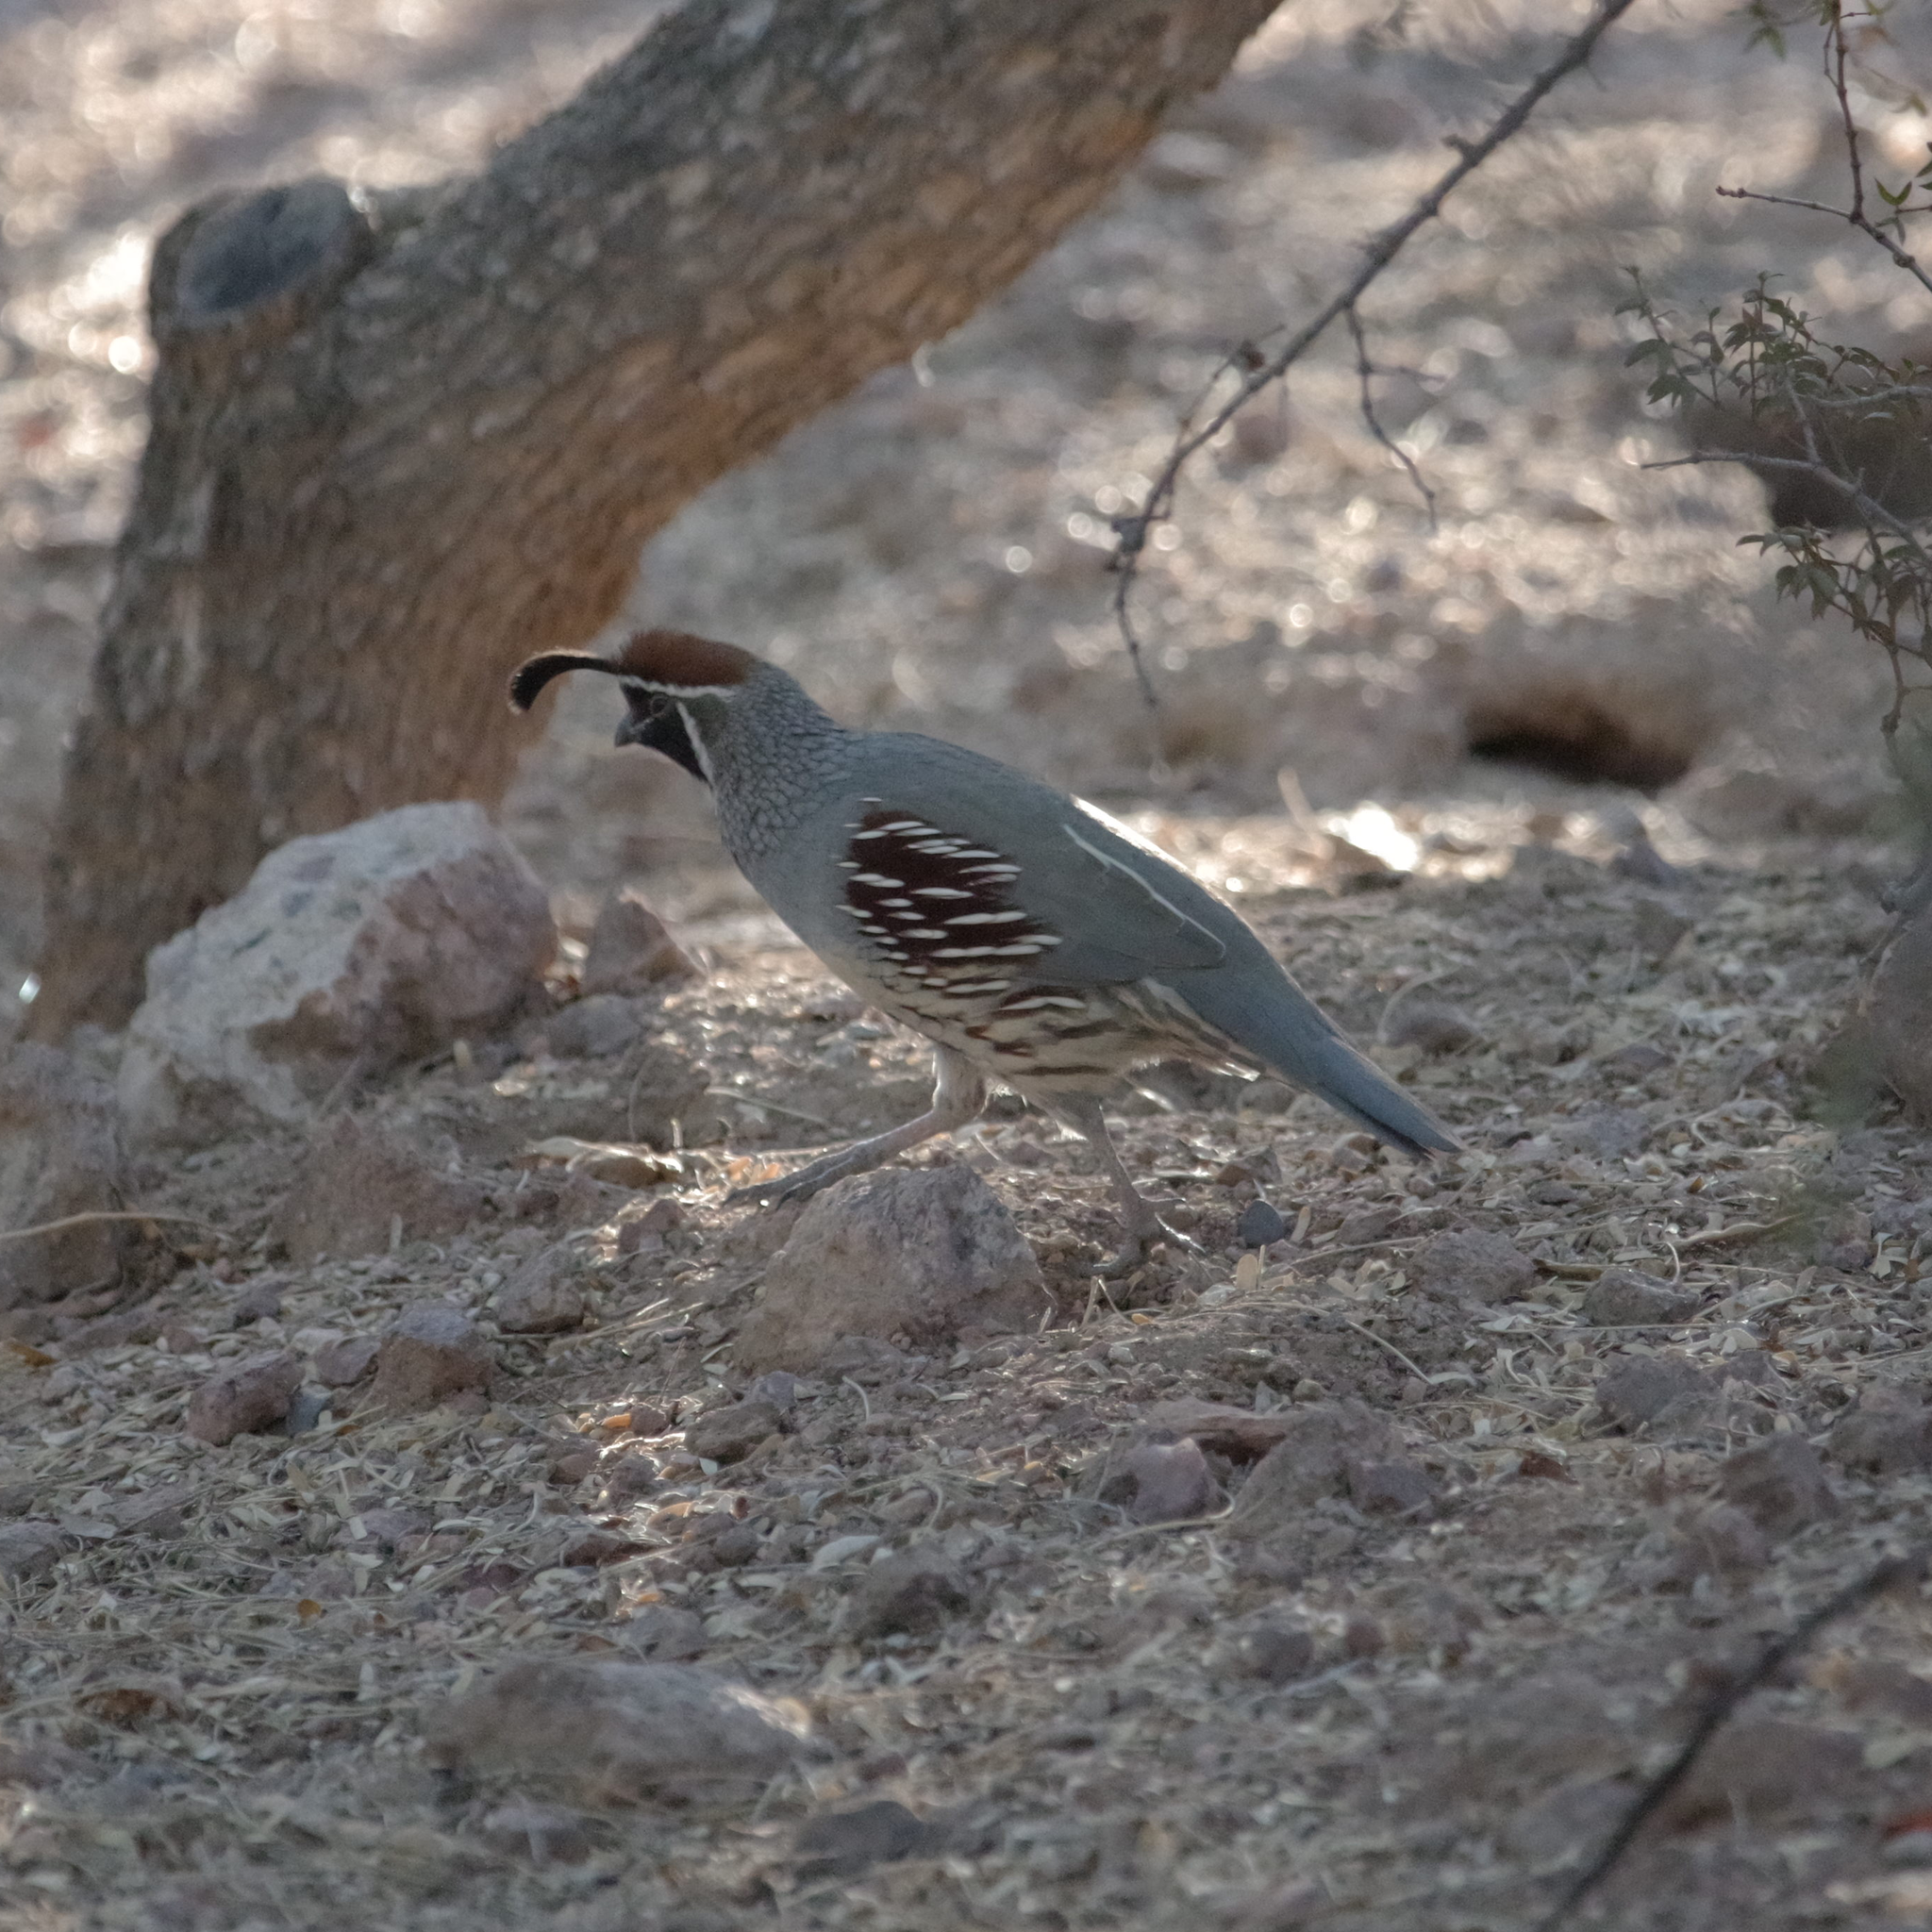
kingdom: Animalia
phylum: Chordata
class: Aves
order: Galliformes
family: Odontophoridae
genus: Callipepla
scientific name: Callipepla gambelii
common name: Gambel's quail
